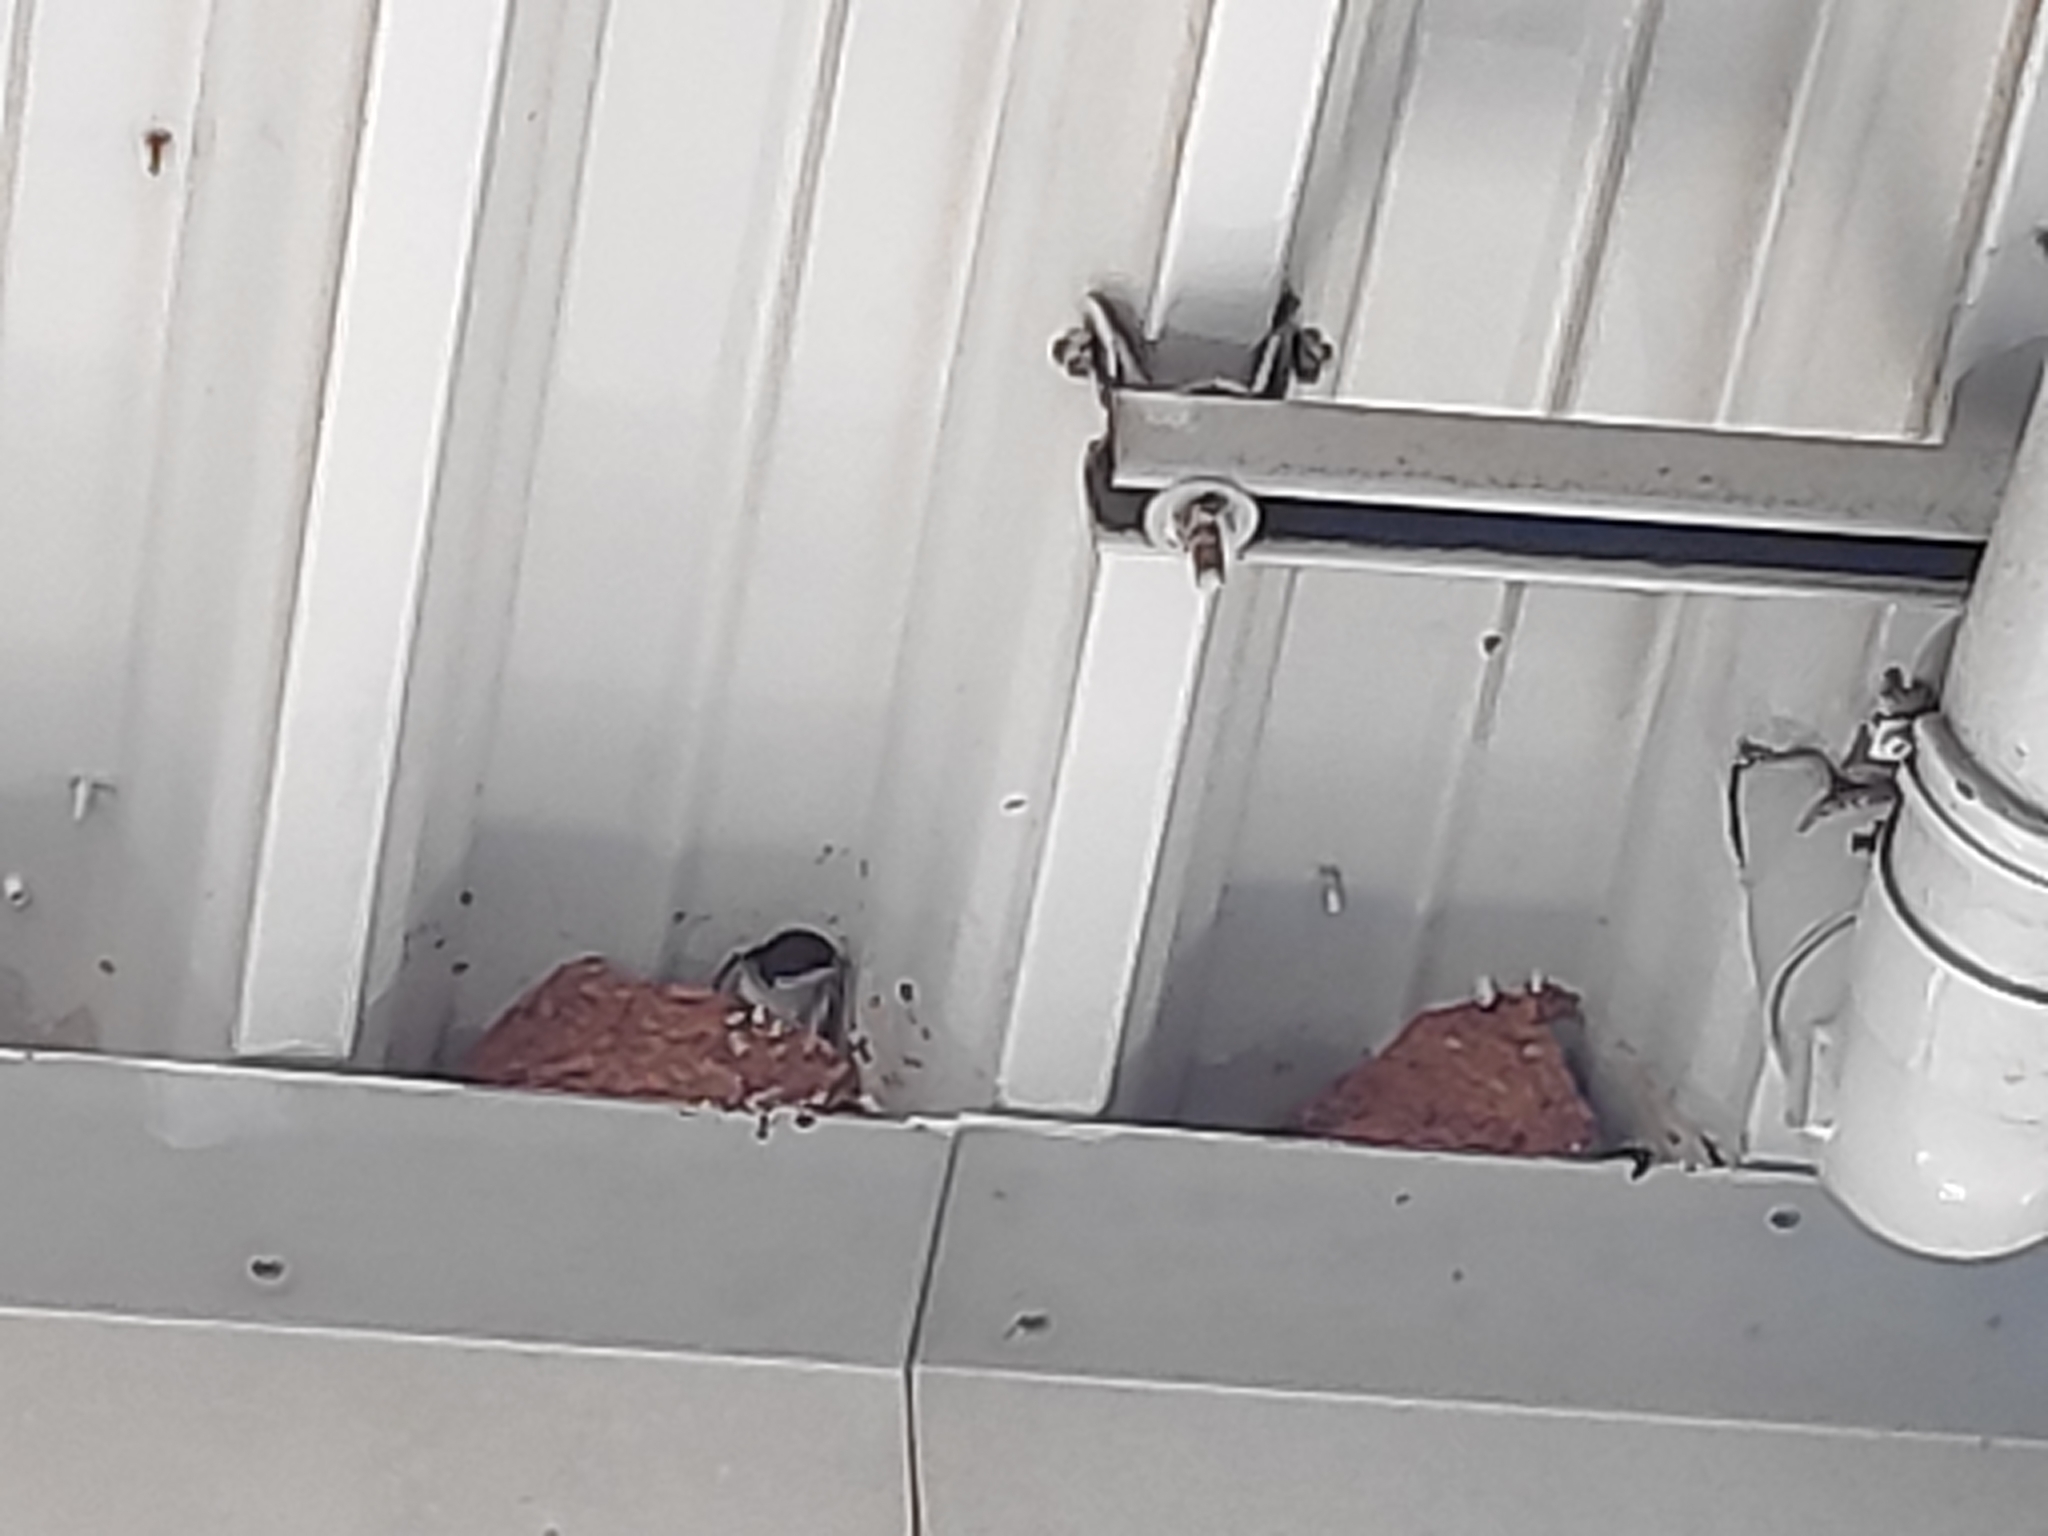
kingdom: Animalia
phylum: Chordata
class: Aves
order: Passeriformes
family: Hirundinidae
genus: Delichon
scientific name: Delichon urbicum
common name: Common house martin
